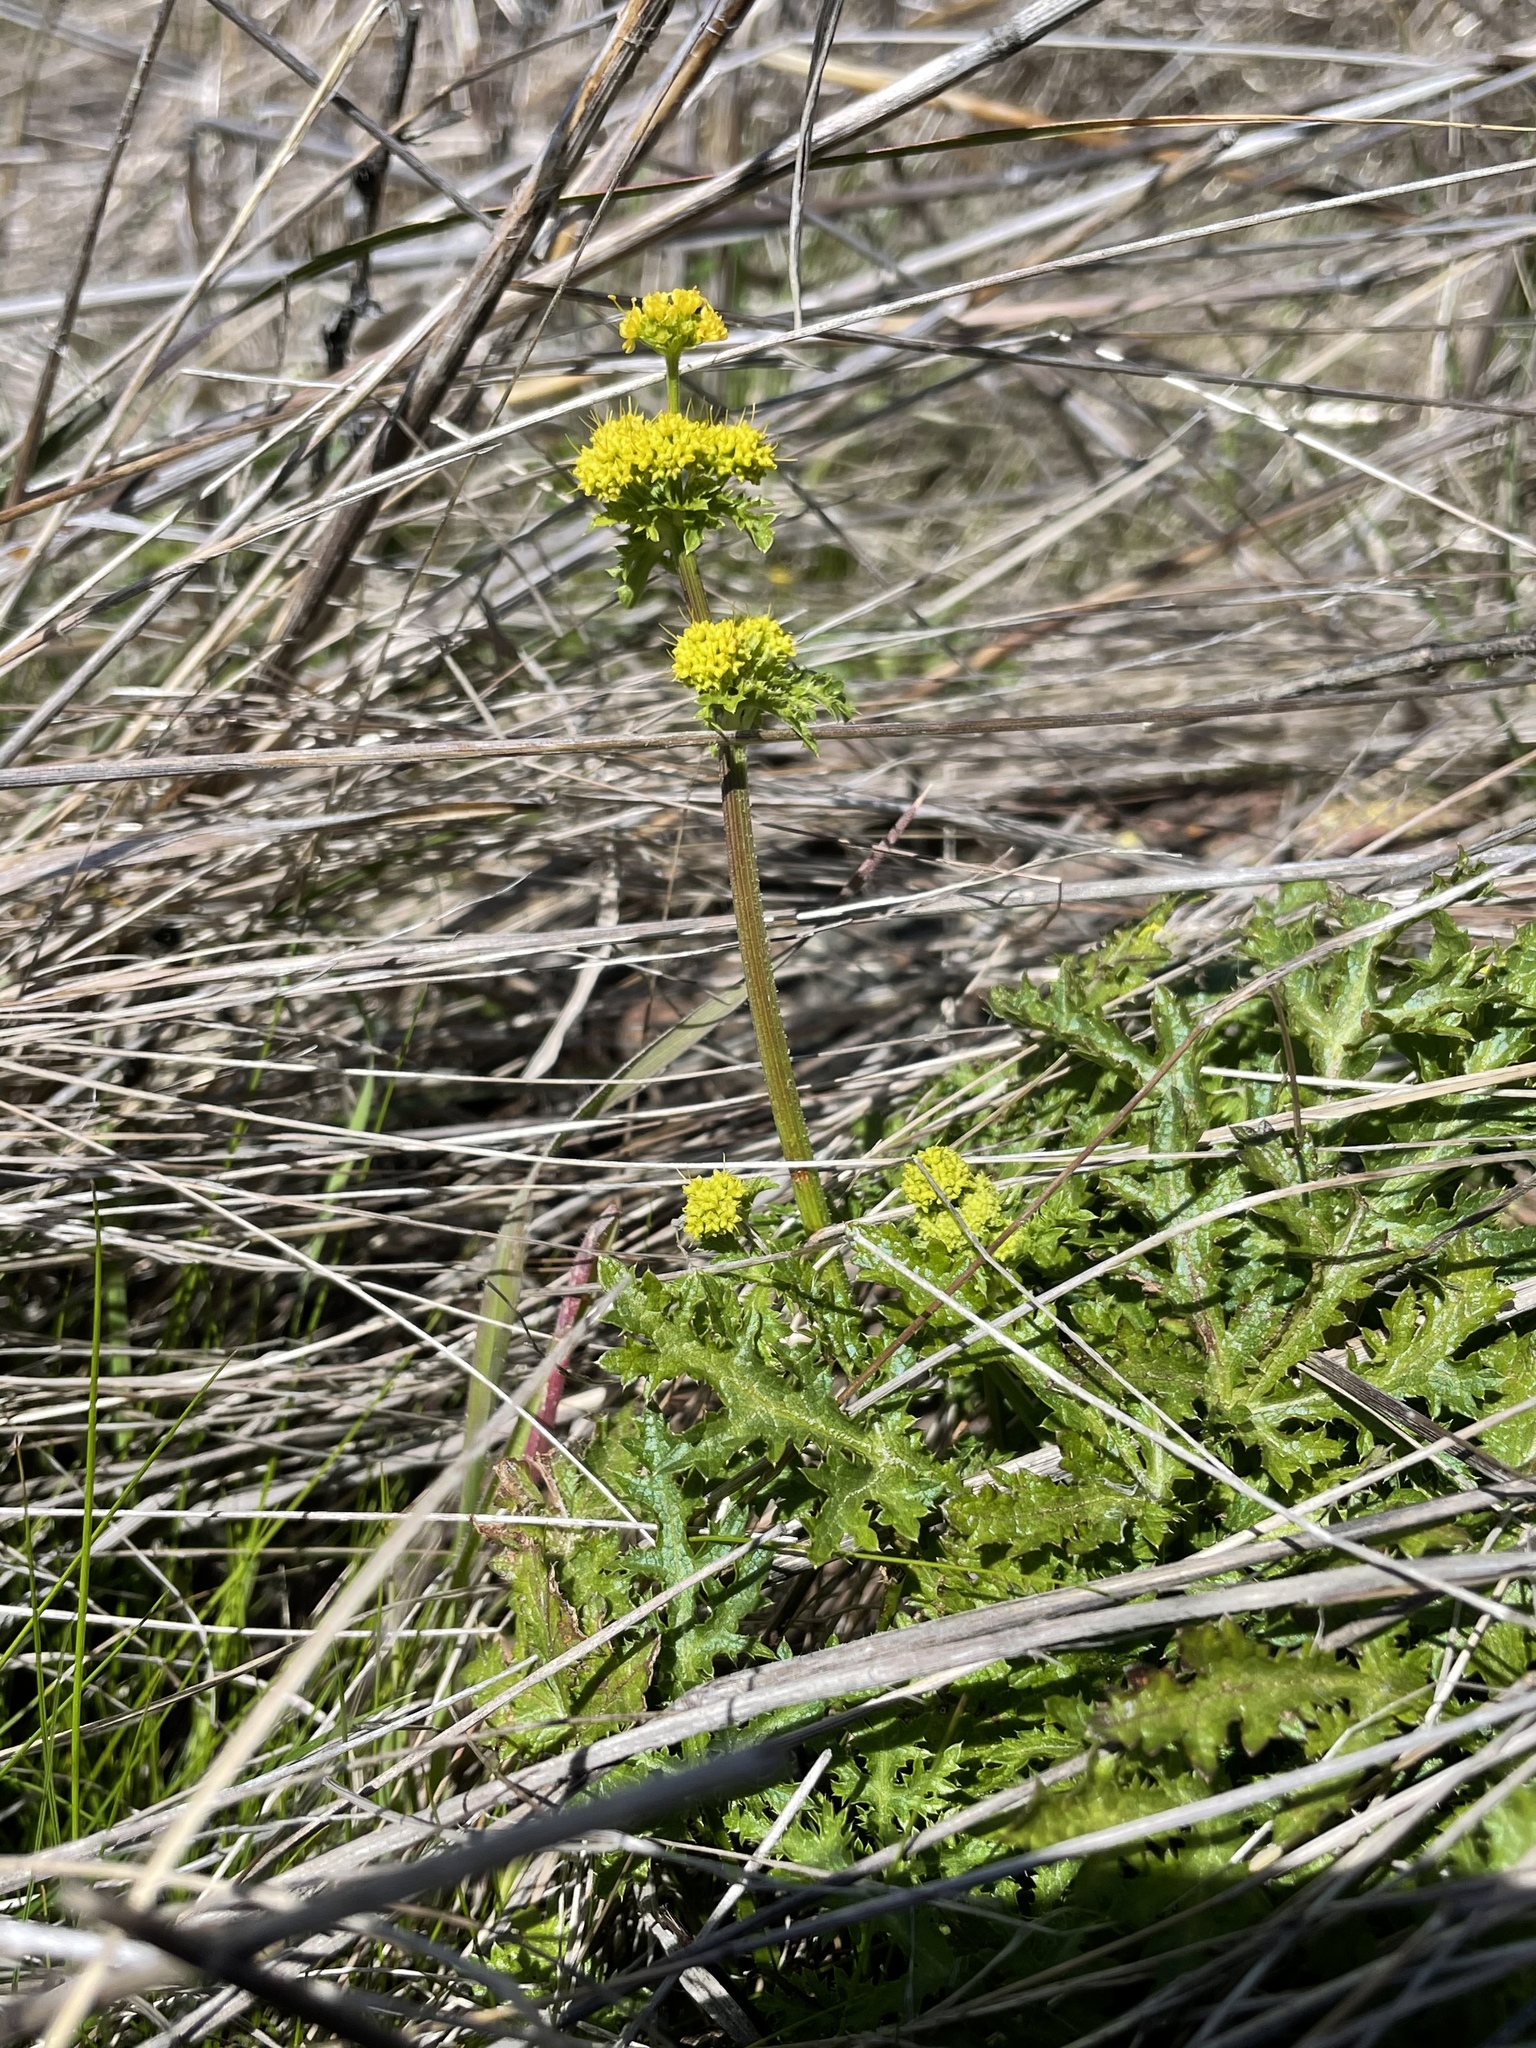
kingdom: Plantae
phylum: Tracheophyta
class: Magnoliopsida
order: Apiales
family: Apiaceae
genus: Sanicula
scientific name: Sanicula arguta
